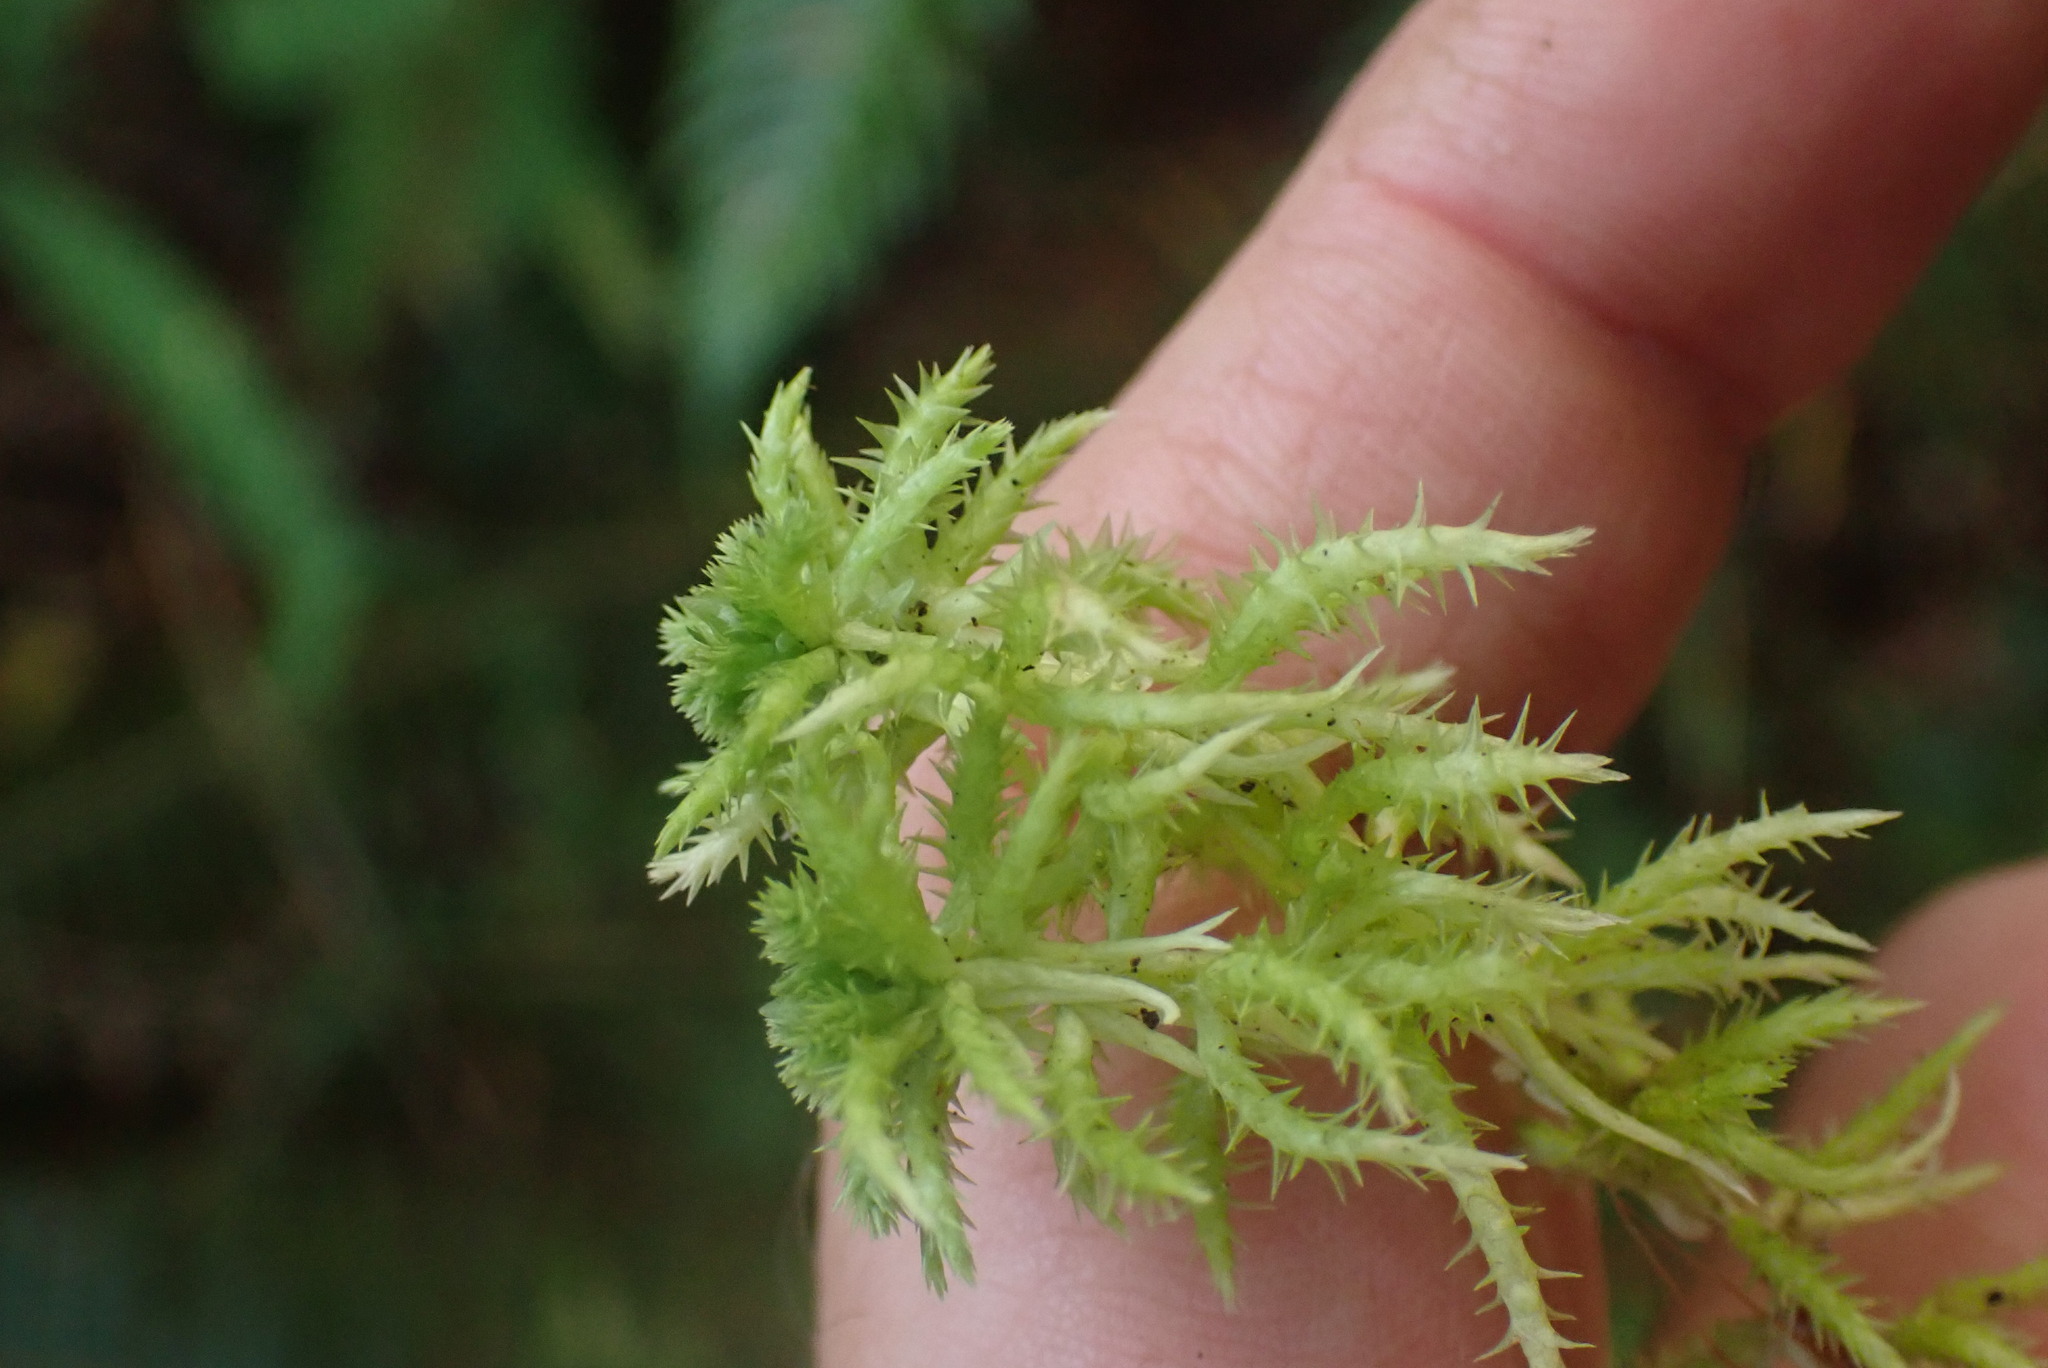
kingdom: Plantae
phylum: Bryophyta
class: Sphagnopsida
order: Sphagnales
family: Sphagnaceae
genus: Sphagnum
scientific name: Sphagnum squarrosum
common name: Shaggy peat moss
